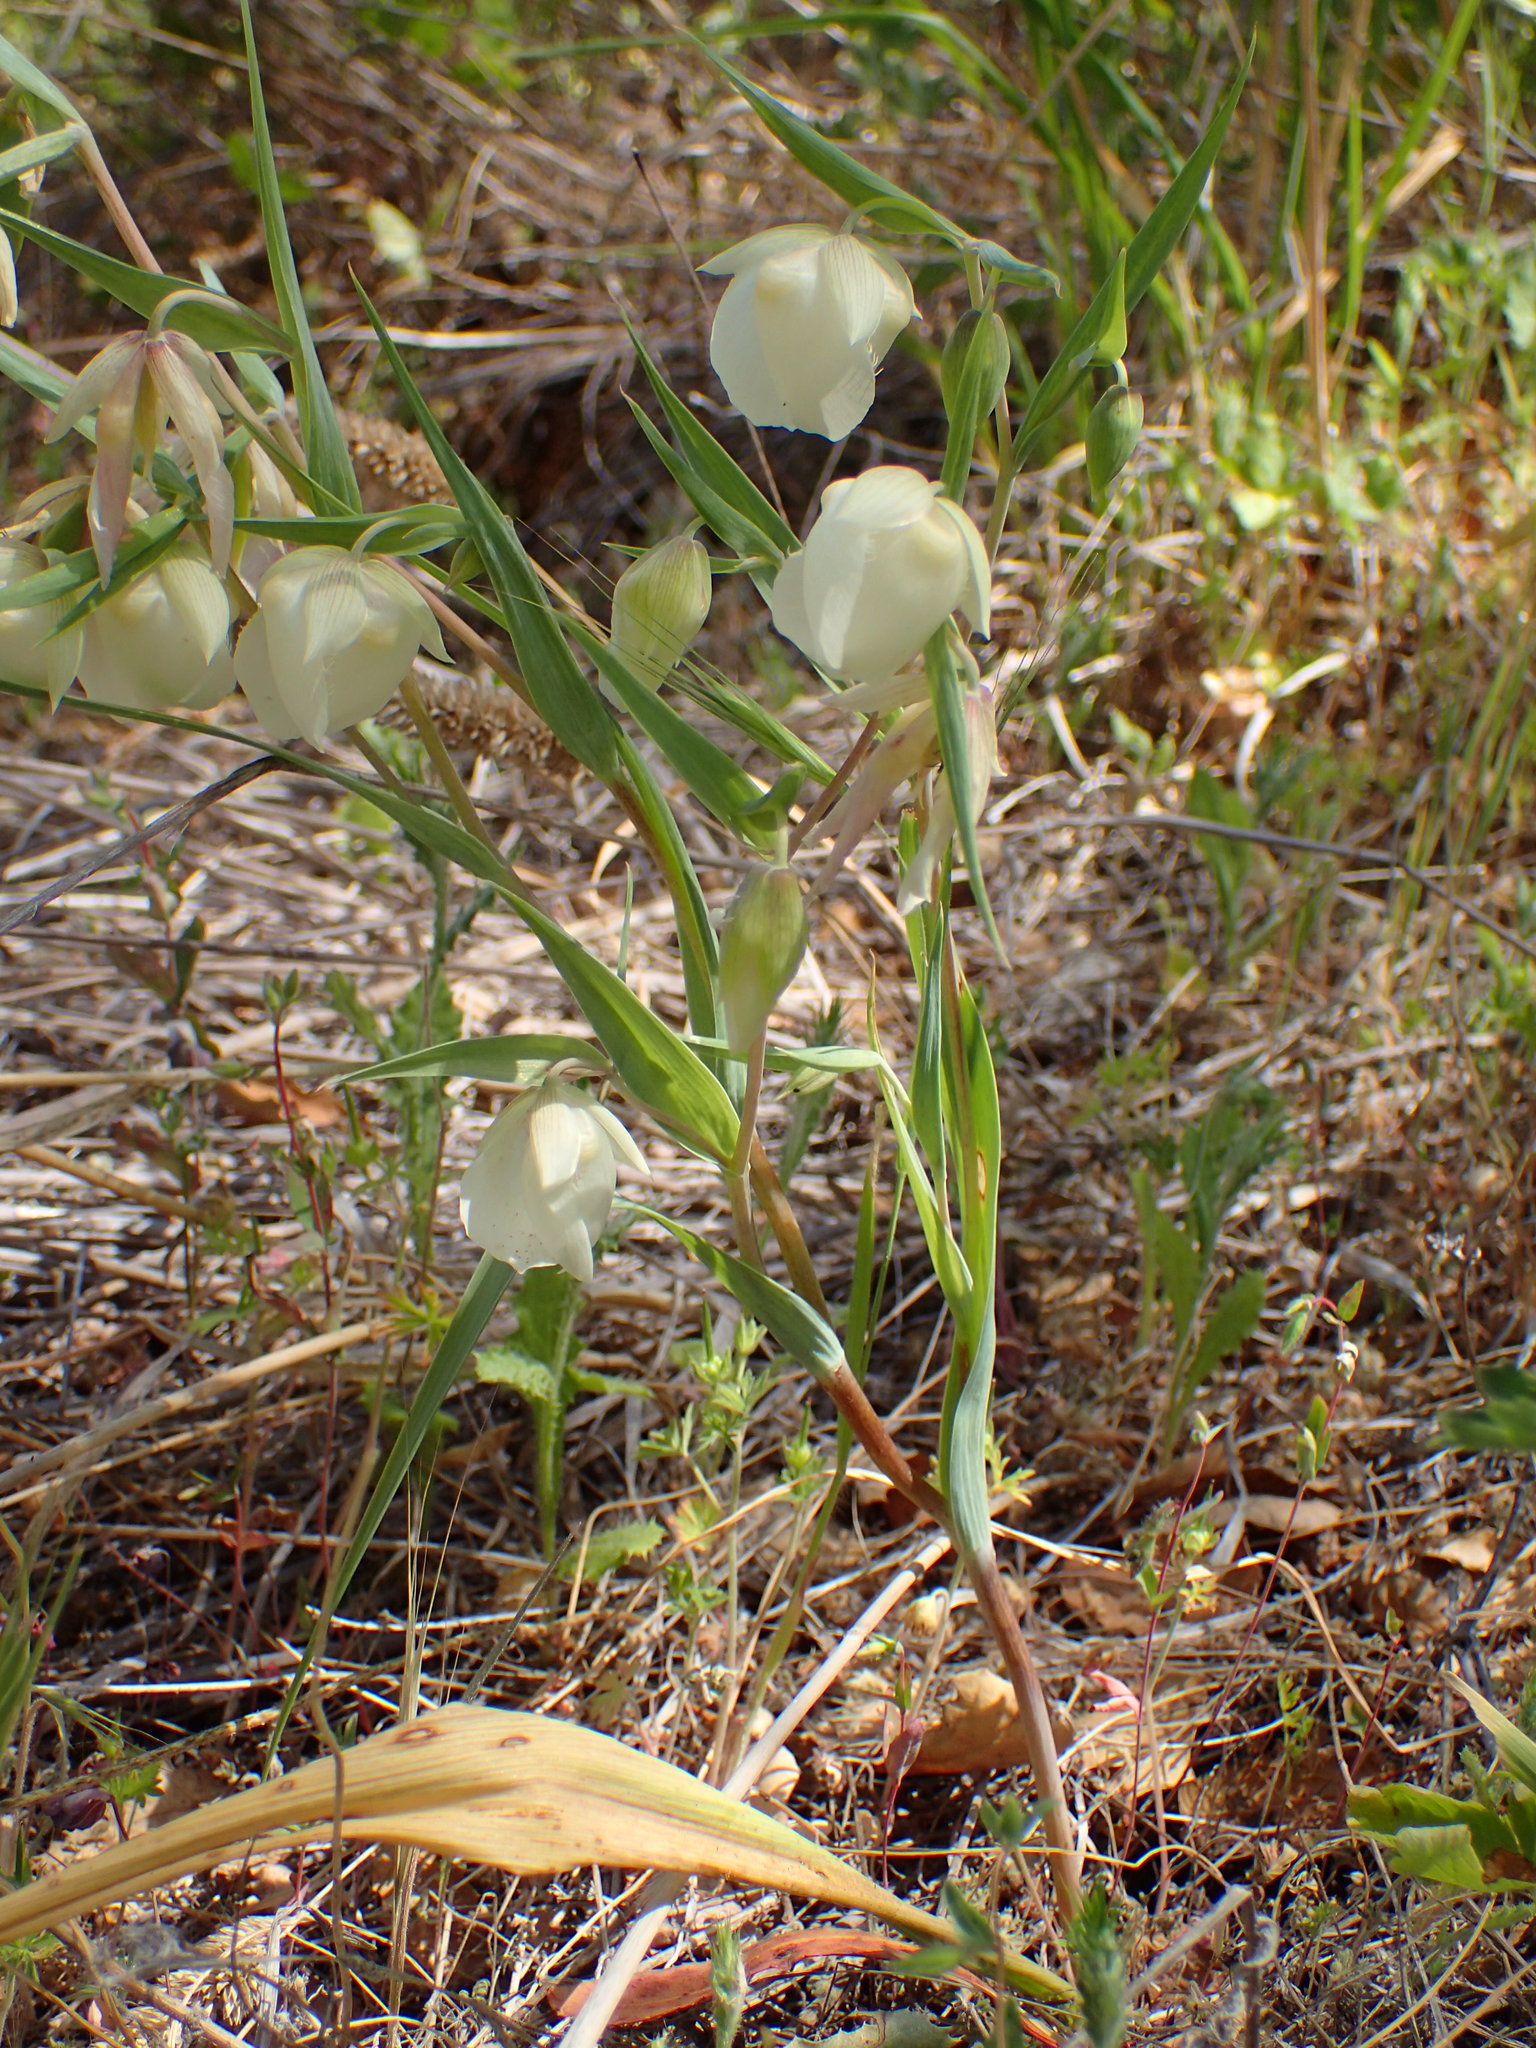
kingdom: Plantae
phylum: Tracheophyta
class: Liliopsida
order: Liliales
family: Liliaceae
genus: Calochortus
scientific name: Calochortus albus
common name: Fairy-lantern
